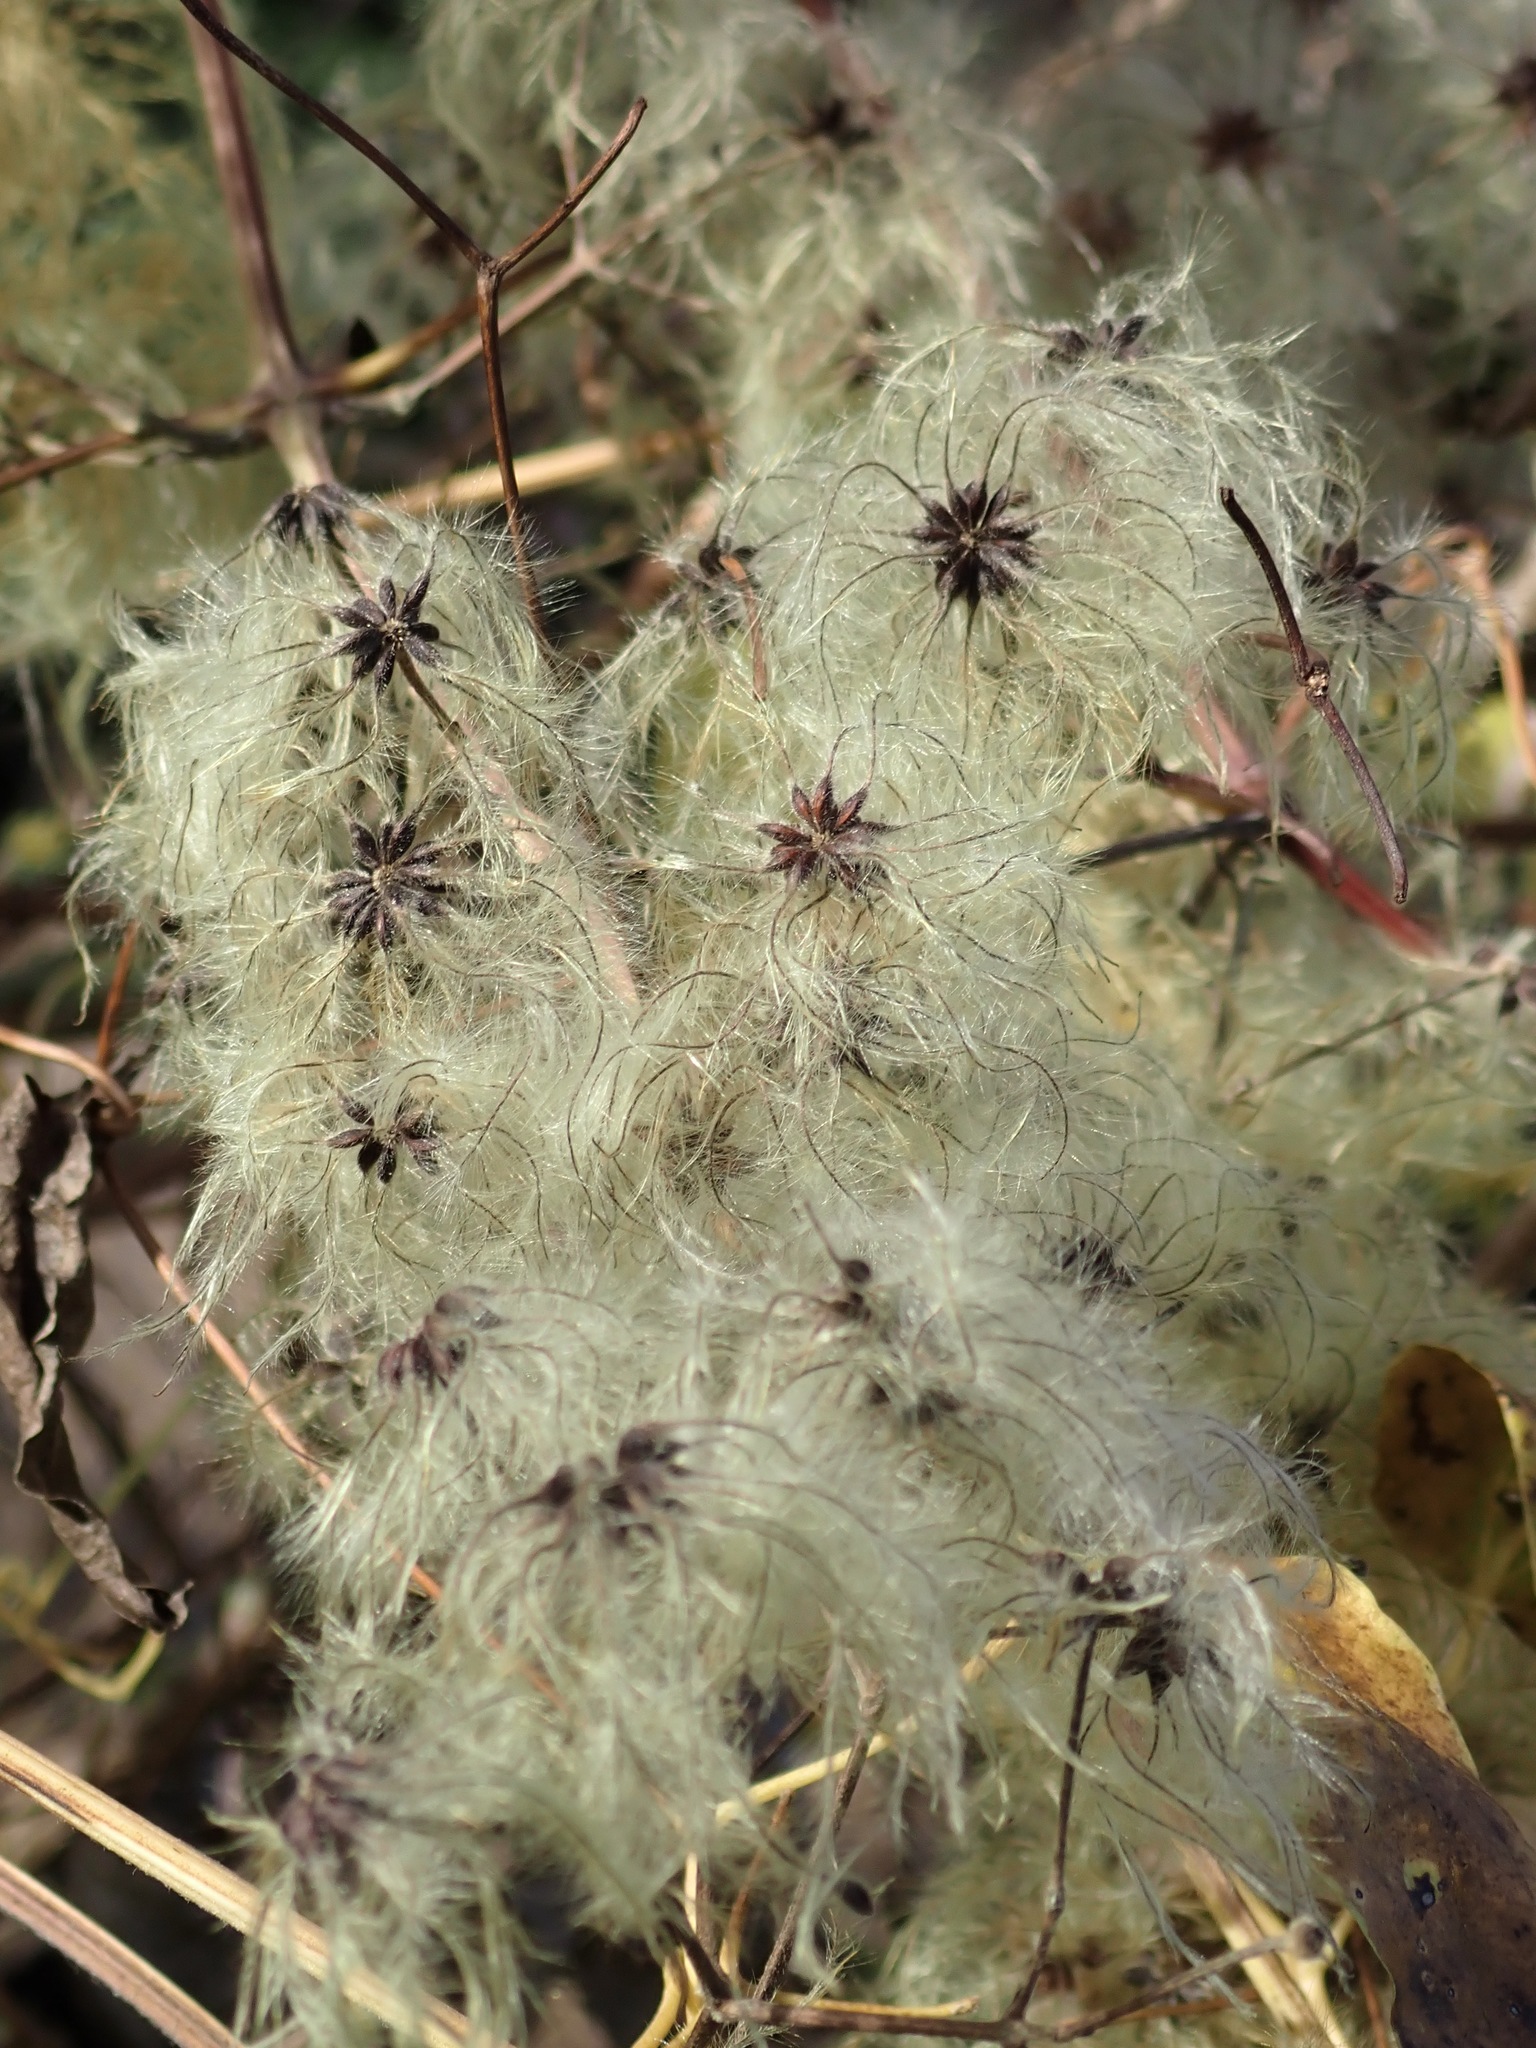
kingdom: Plantae
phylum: Tracheophyta
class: Magnoliopsida
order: Ranunculales
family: Ranunculaceae
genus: Clematis
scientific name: Clematis vitalba
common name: Evergreen clematis
